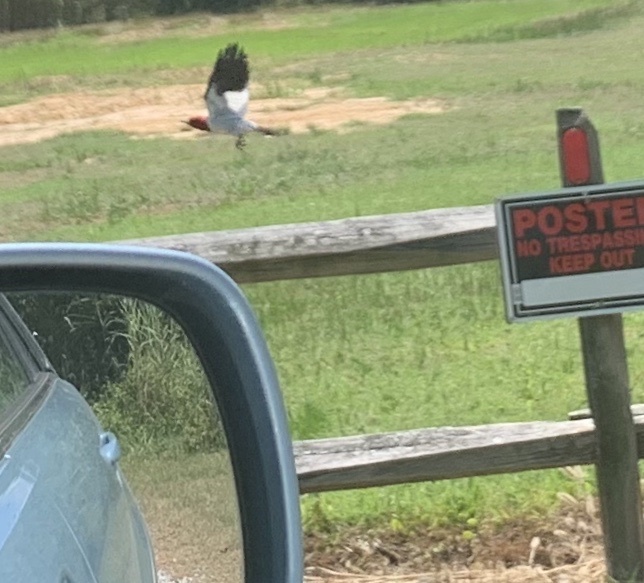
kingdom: Animalia
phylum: Chordata
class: Aves
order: Piciformes
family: Picidae
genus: Melanerpes
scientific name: Melanerpes erythrocephalus
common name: Red-headed woodpecker
